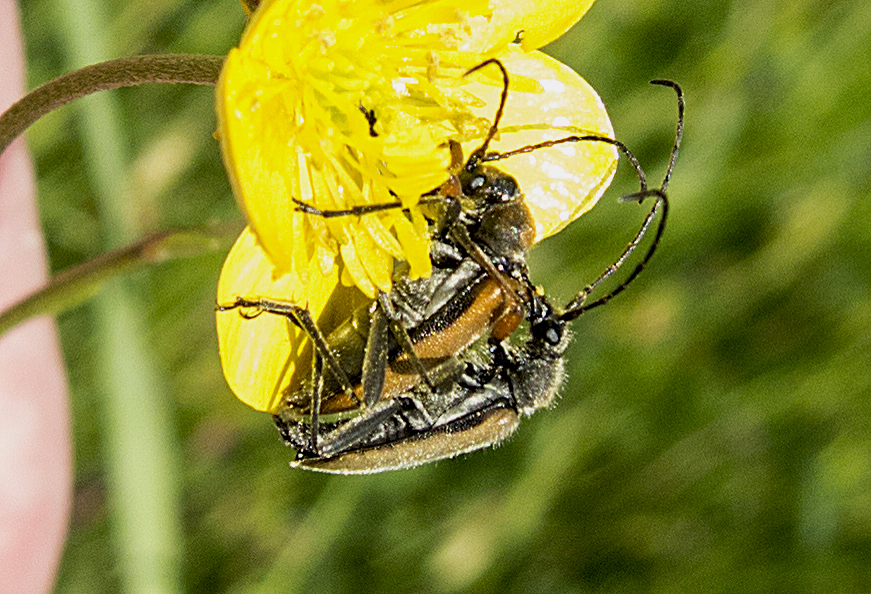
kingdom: Animalia
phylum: Arthropoda
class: Insecta
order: Coleoptera
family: Cerambycidae
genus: Cortodera
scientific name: Cortodera flavimana
